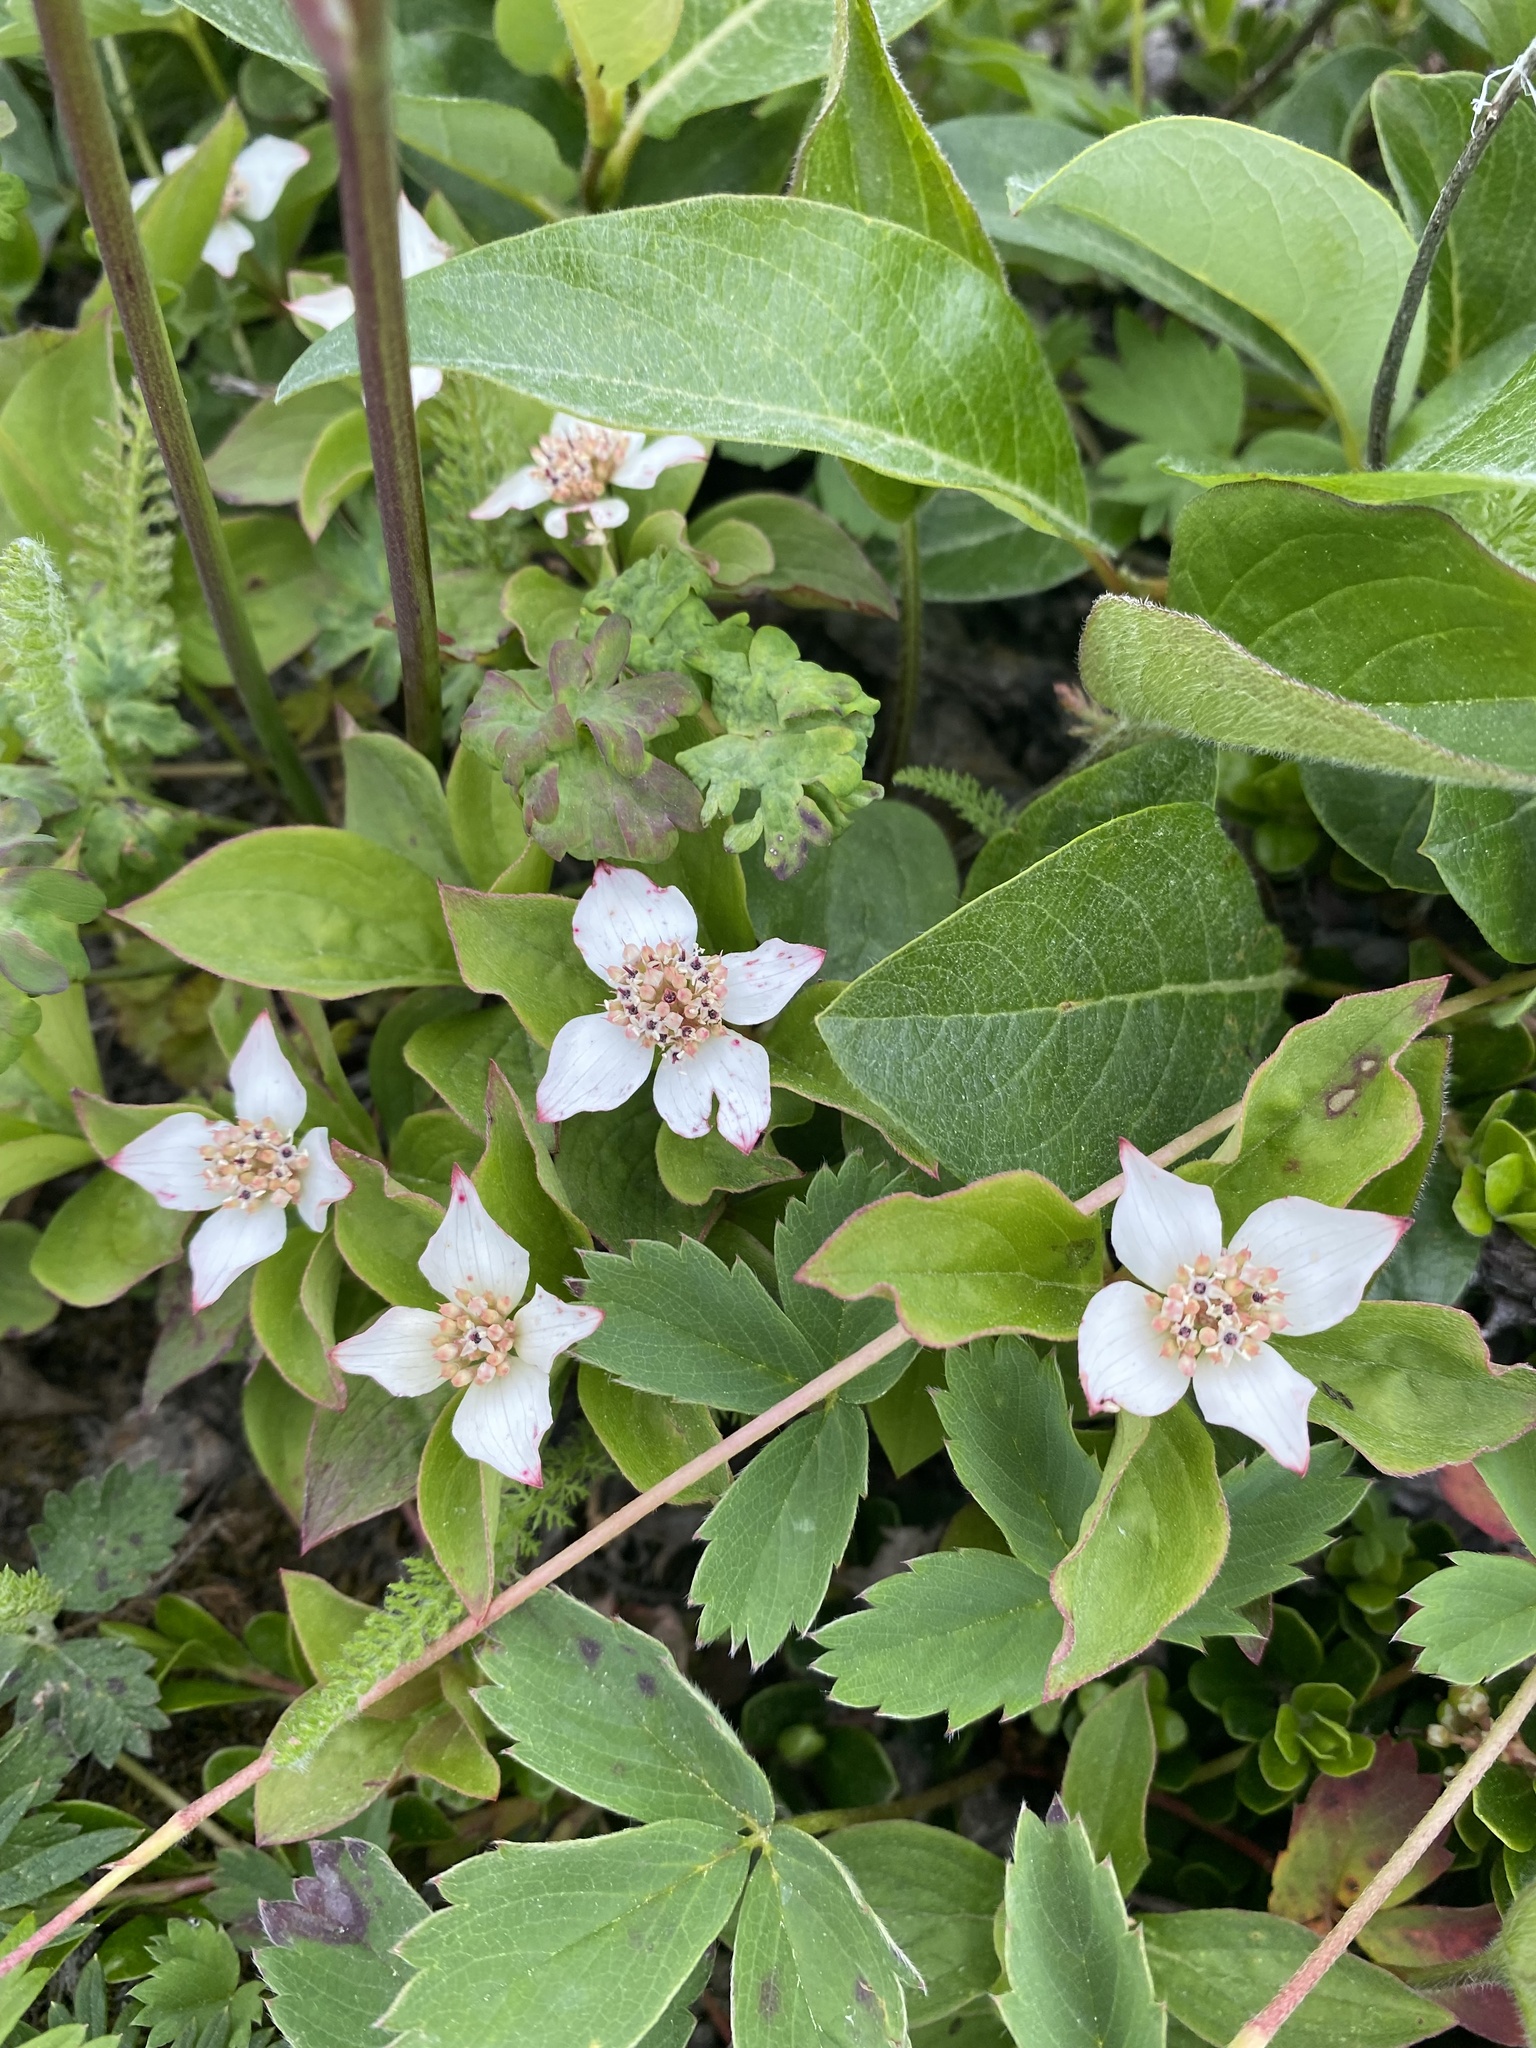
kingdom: Plantae
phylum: Tracheophyta
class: Magnoliopsida
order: Cornales
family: Cornaceae
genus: Cornus
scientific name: Cornus canadensis
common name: Creeping dogwood
